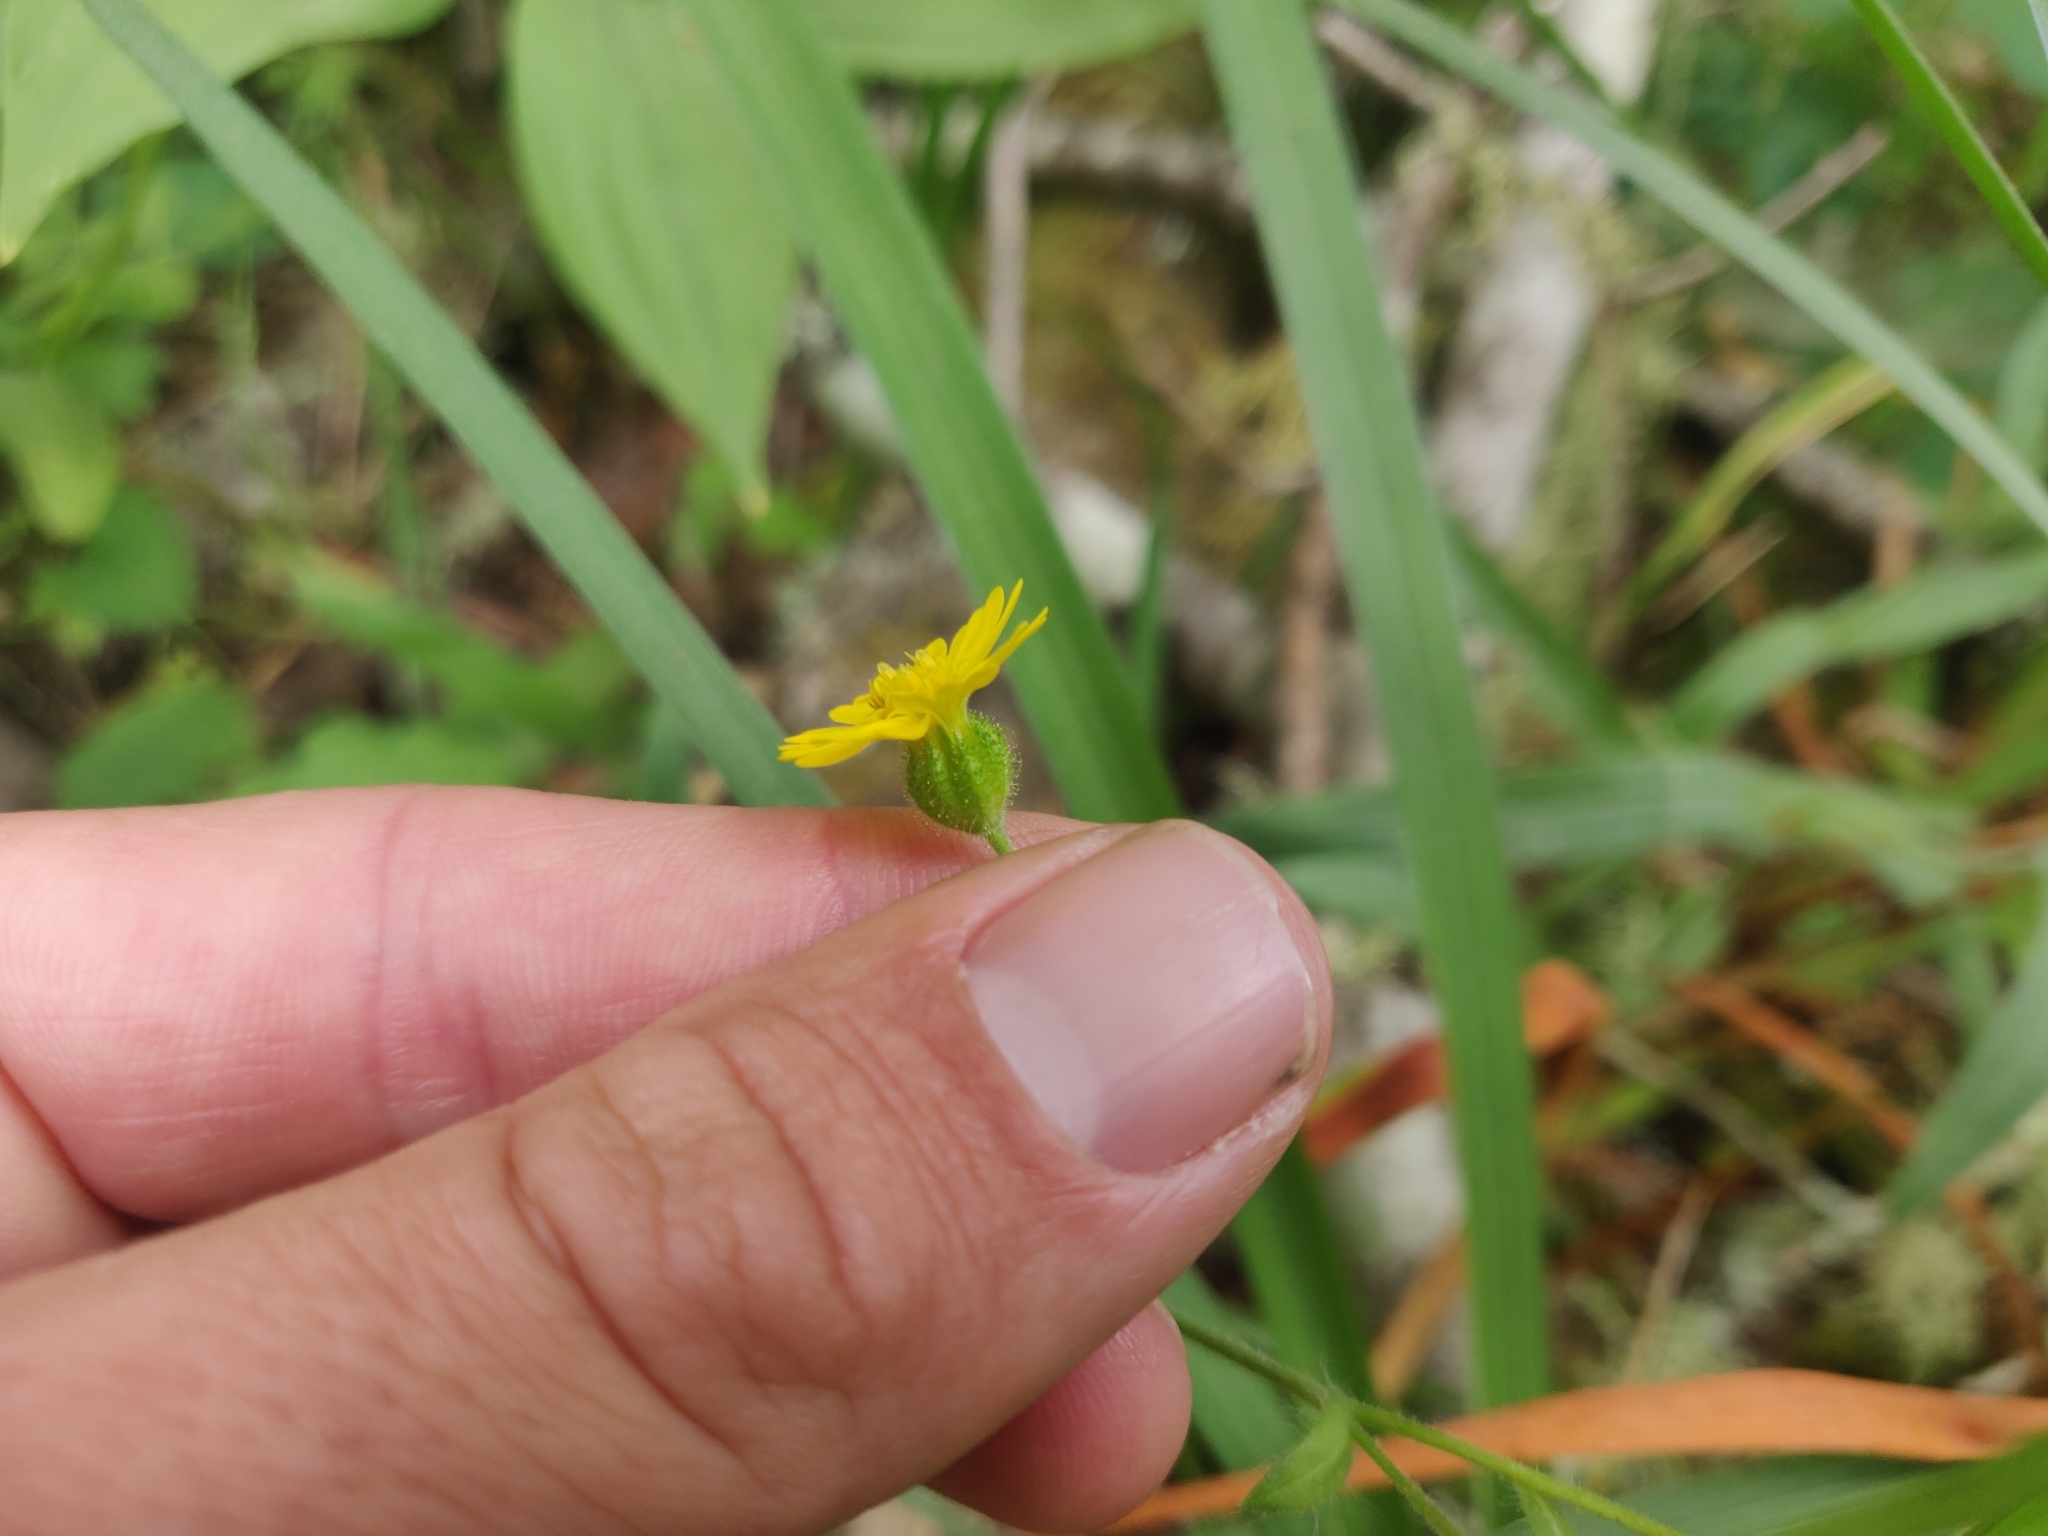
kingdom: Plantae
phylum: Tracheophyta
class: Magnoliopsida
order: Asterales
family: Asteraceae
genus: Anisocarpus
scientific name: Anisocarpus madioides
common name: Woodland madia
